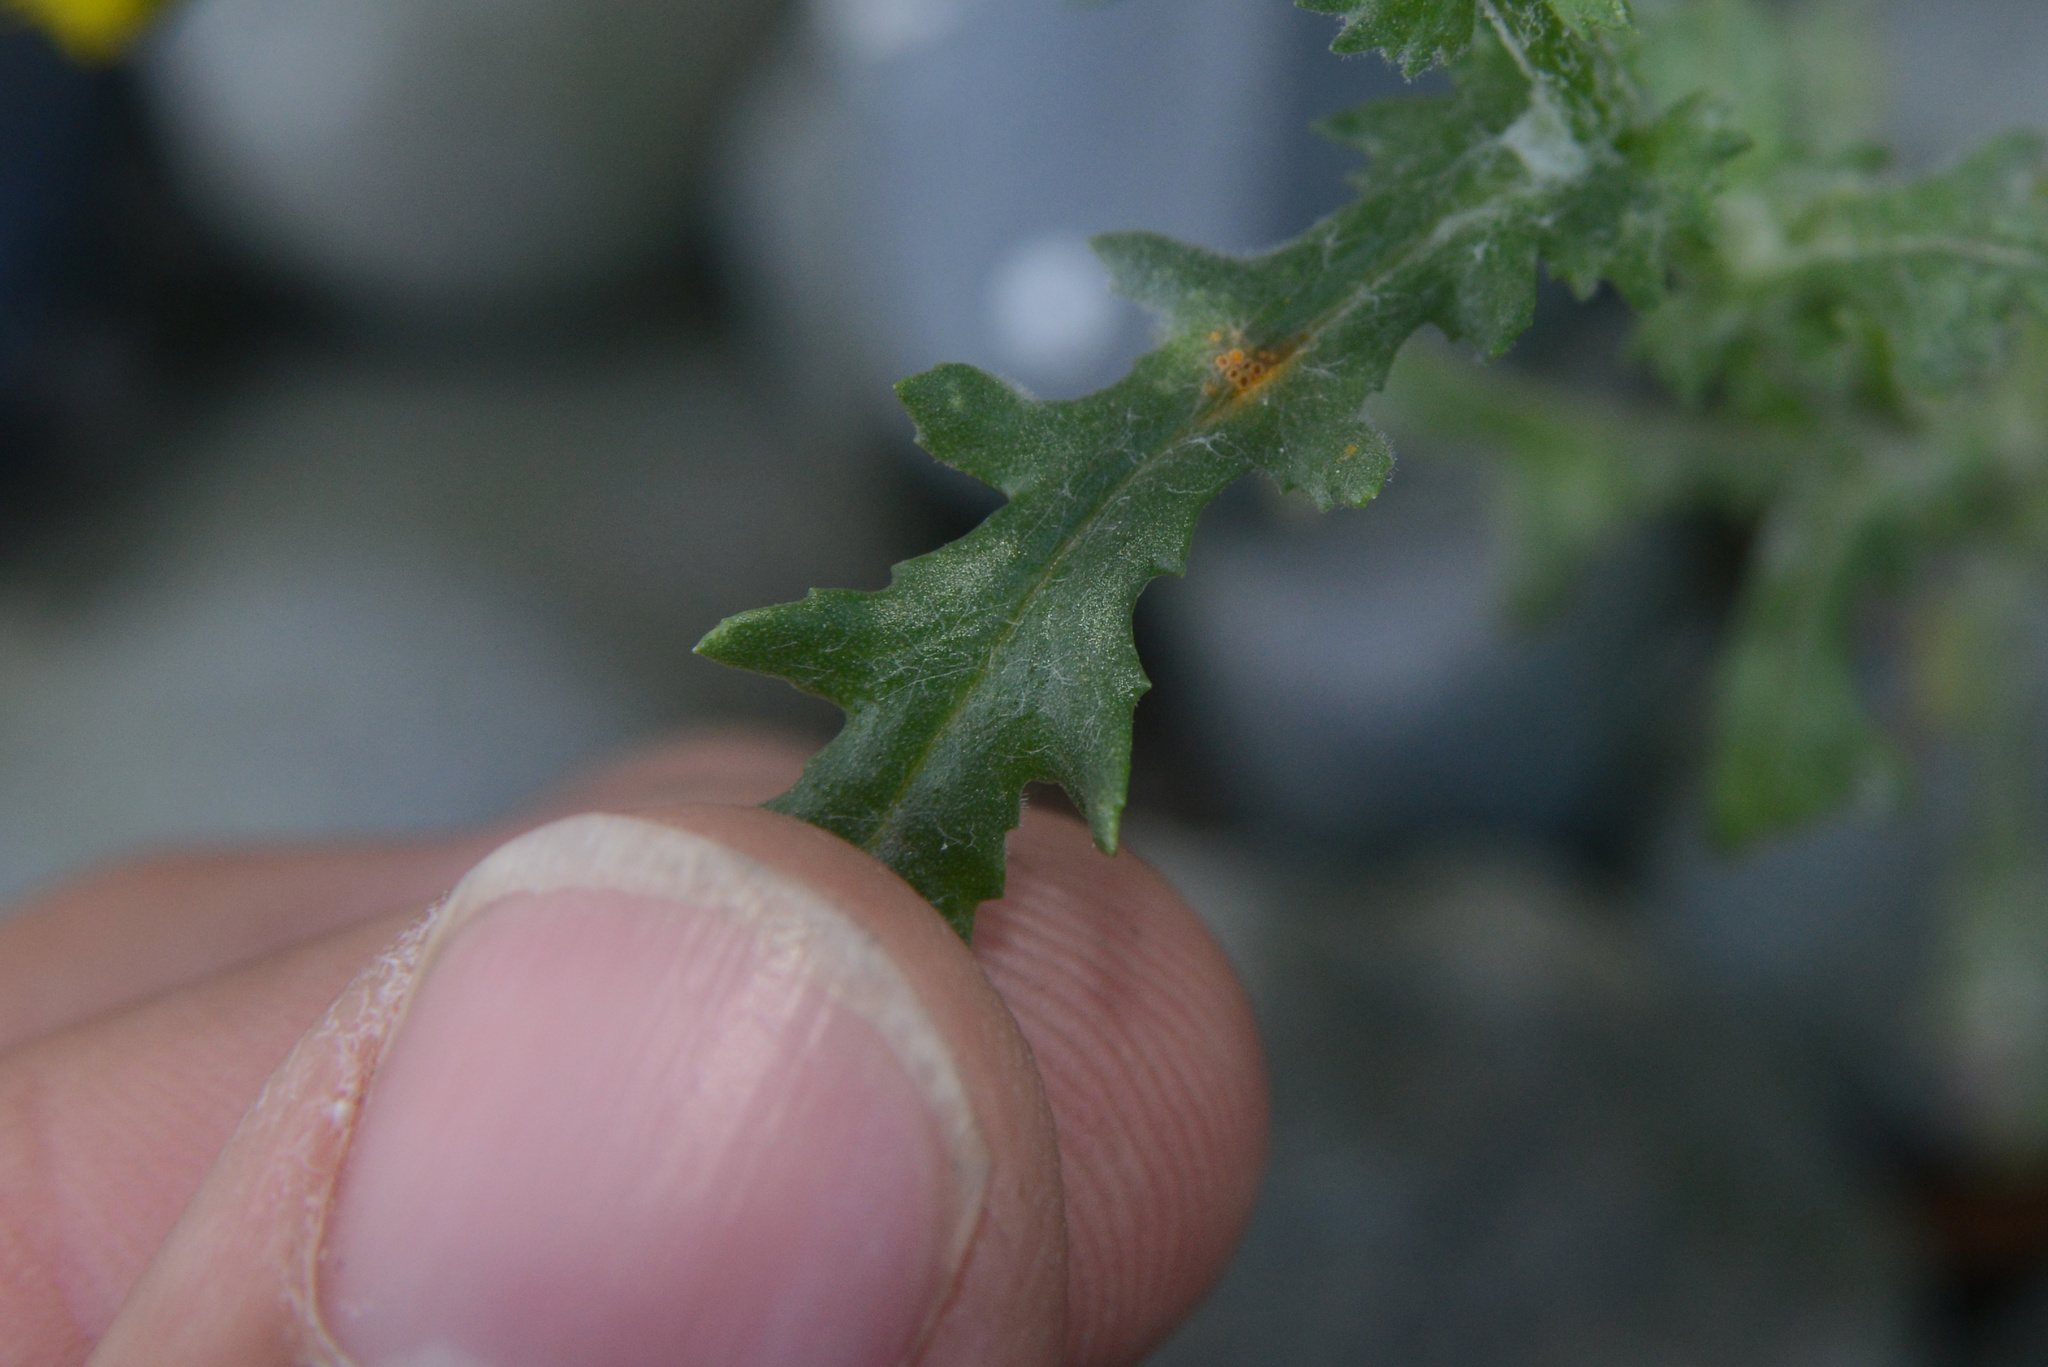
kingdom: Fungi
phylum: Basidiomycota
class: Pucciniomycetes
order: Pucciniales
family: Pucciniaceae
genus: Puccinia
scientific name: Puccinia lagenophorae
